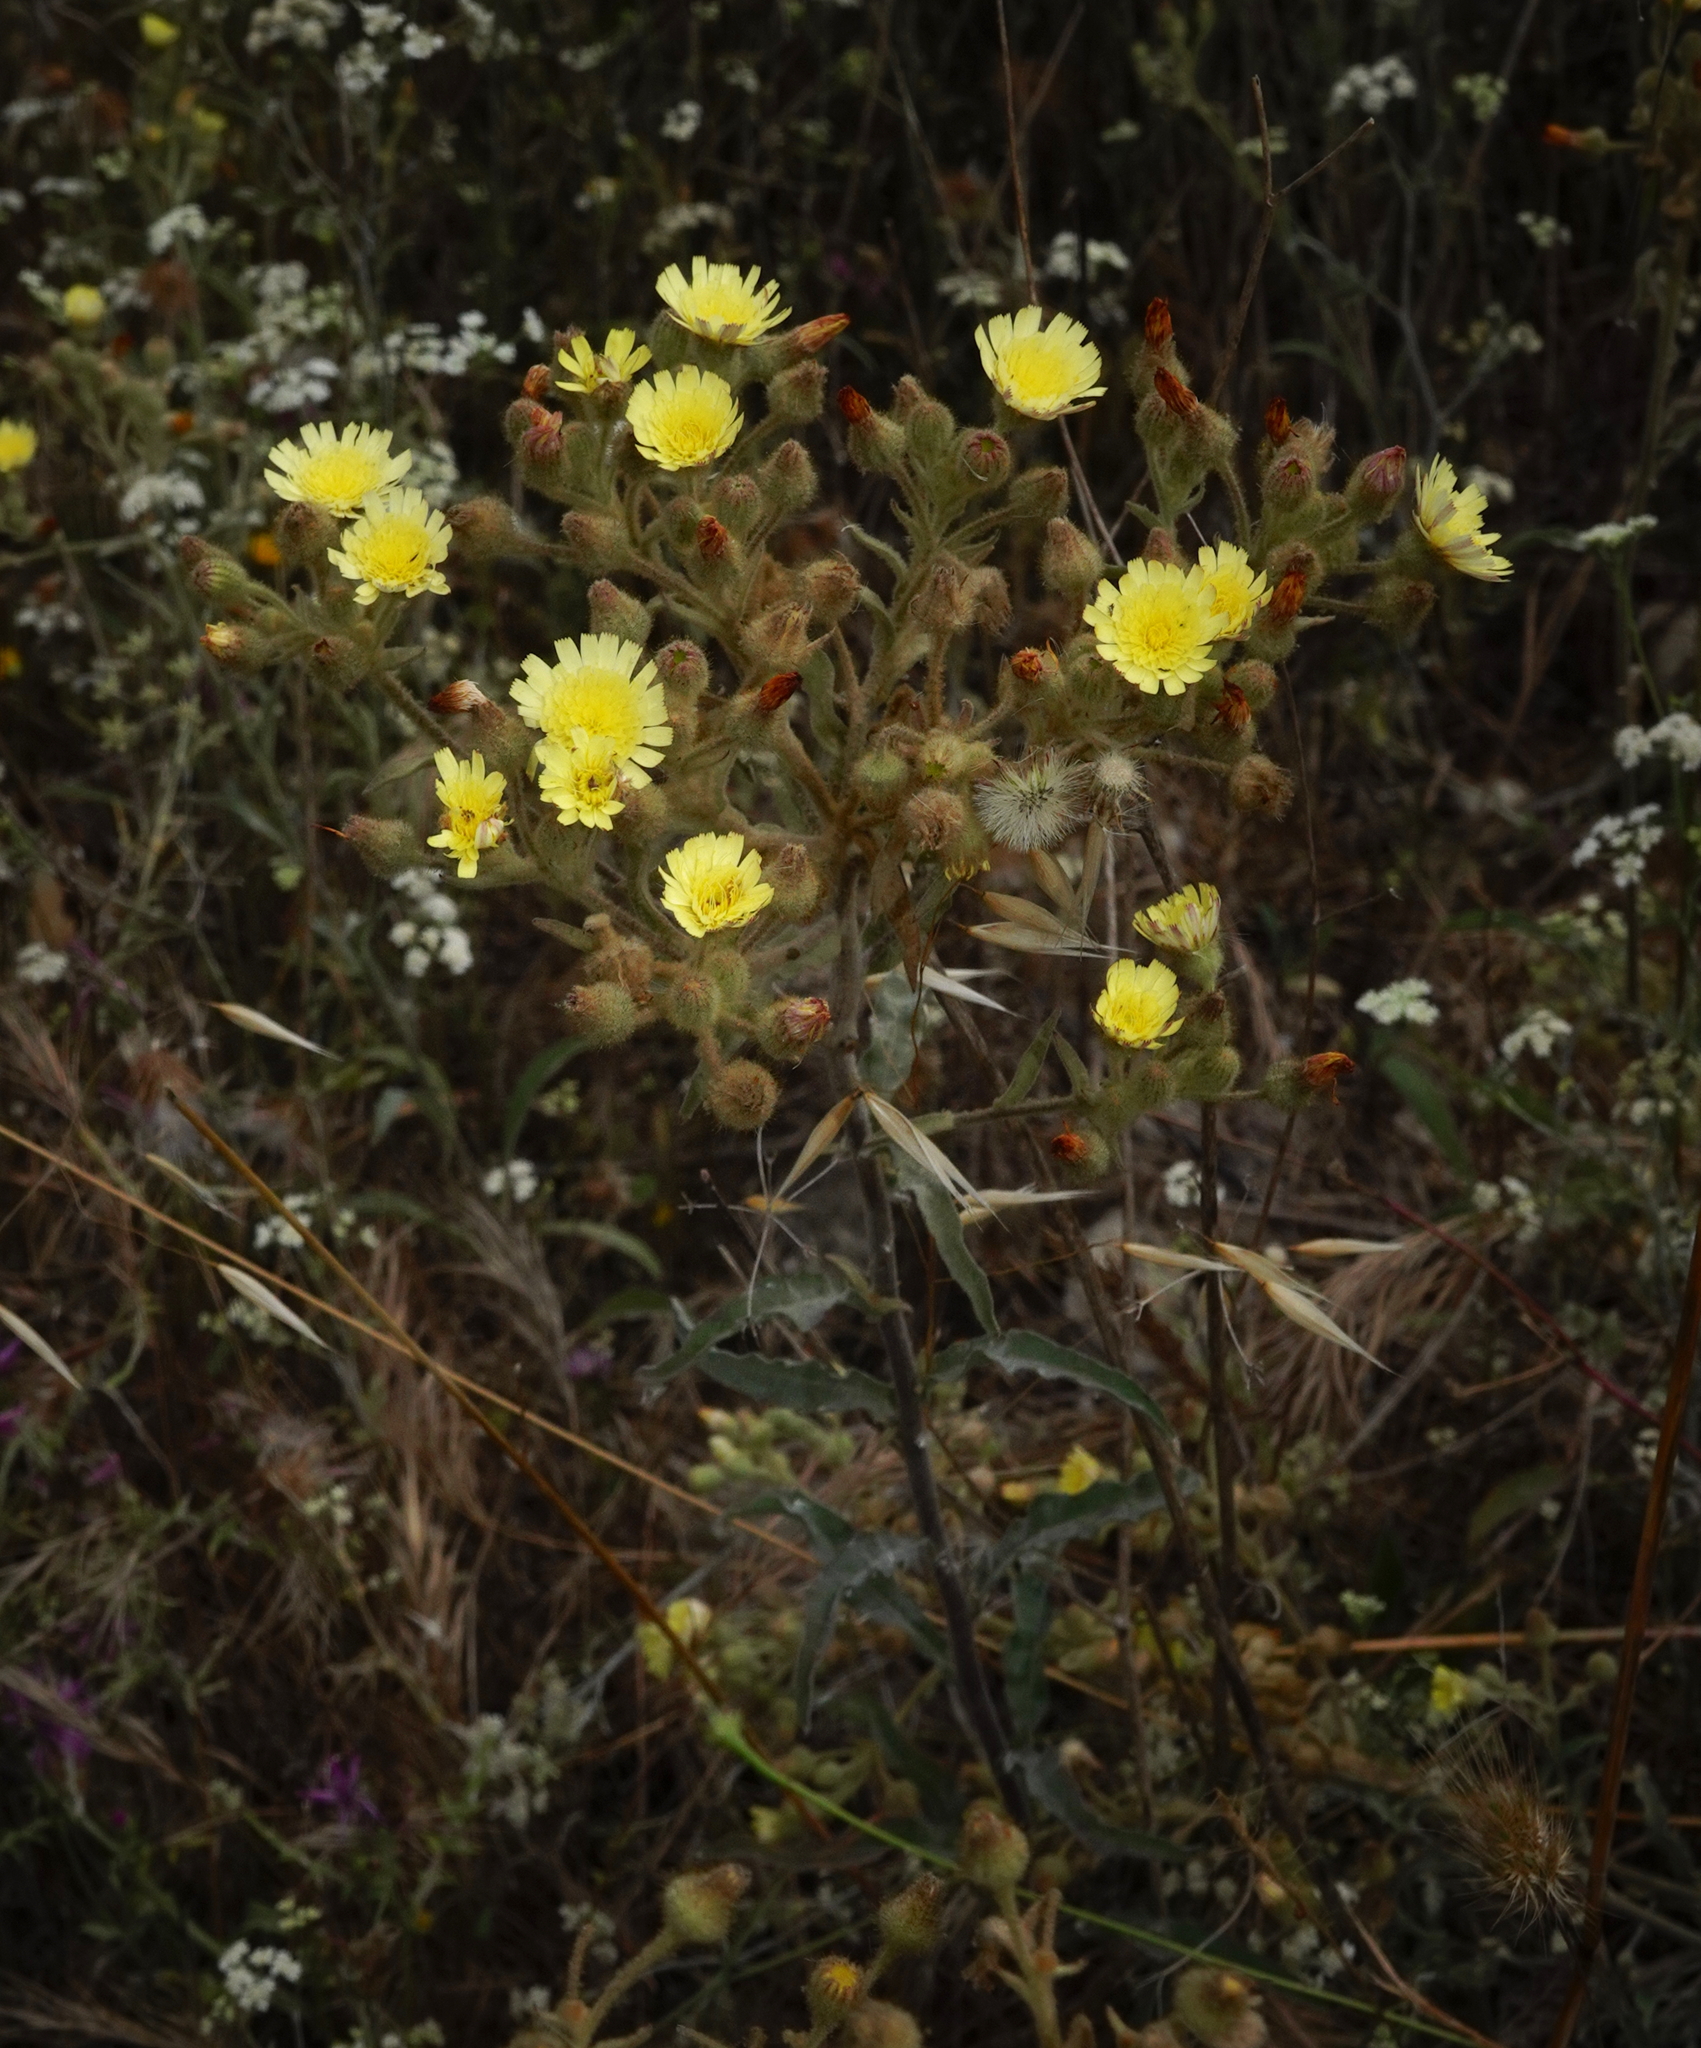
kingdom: Plantae
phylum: Tracheophyta
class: Magnoliopsida
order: Asterales
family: Asteraceae
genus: Andryala
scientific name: Andryala integrifolia
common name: Common andryala
